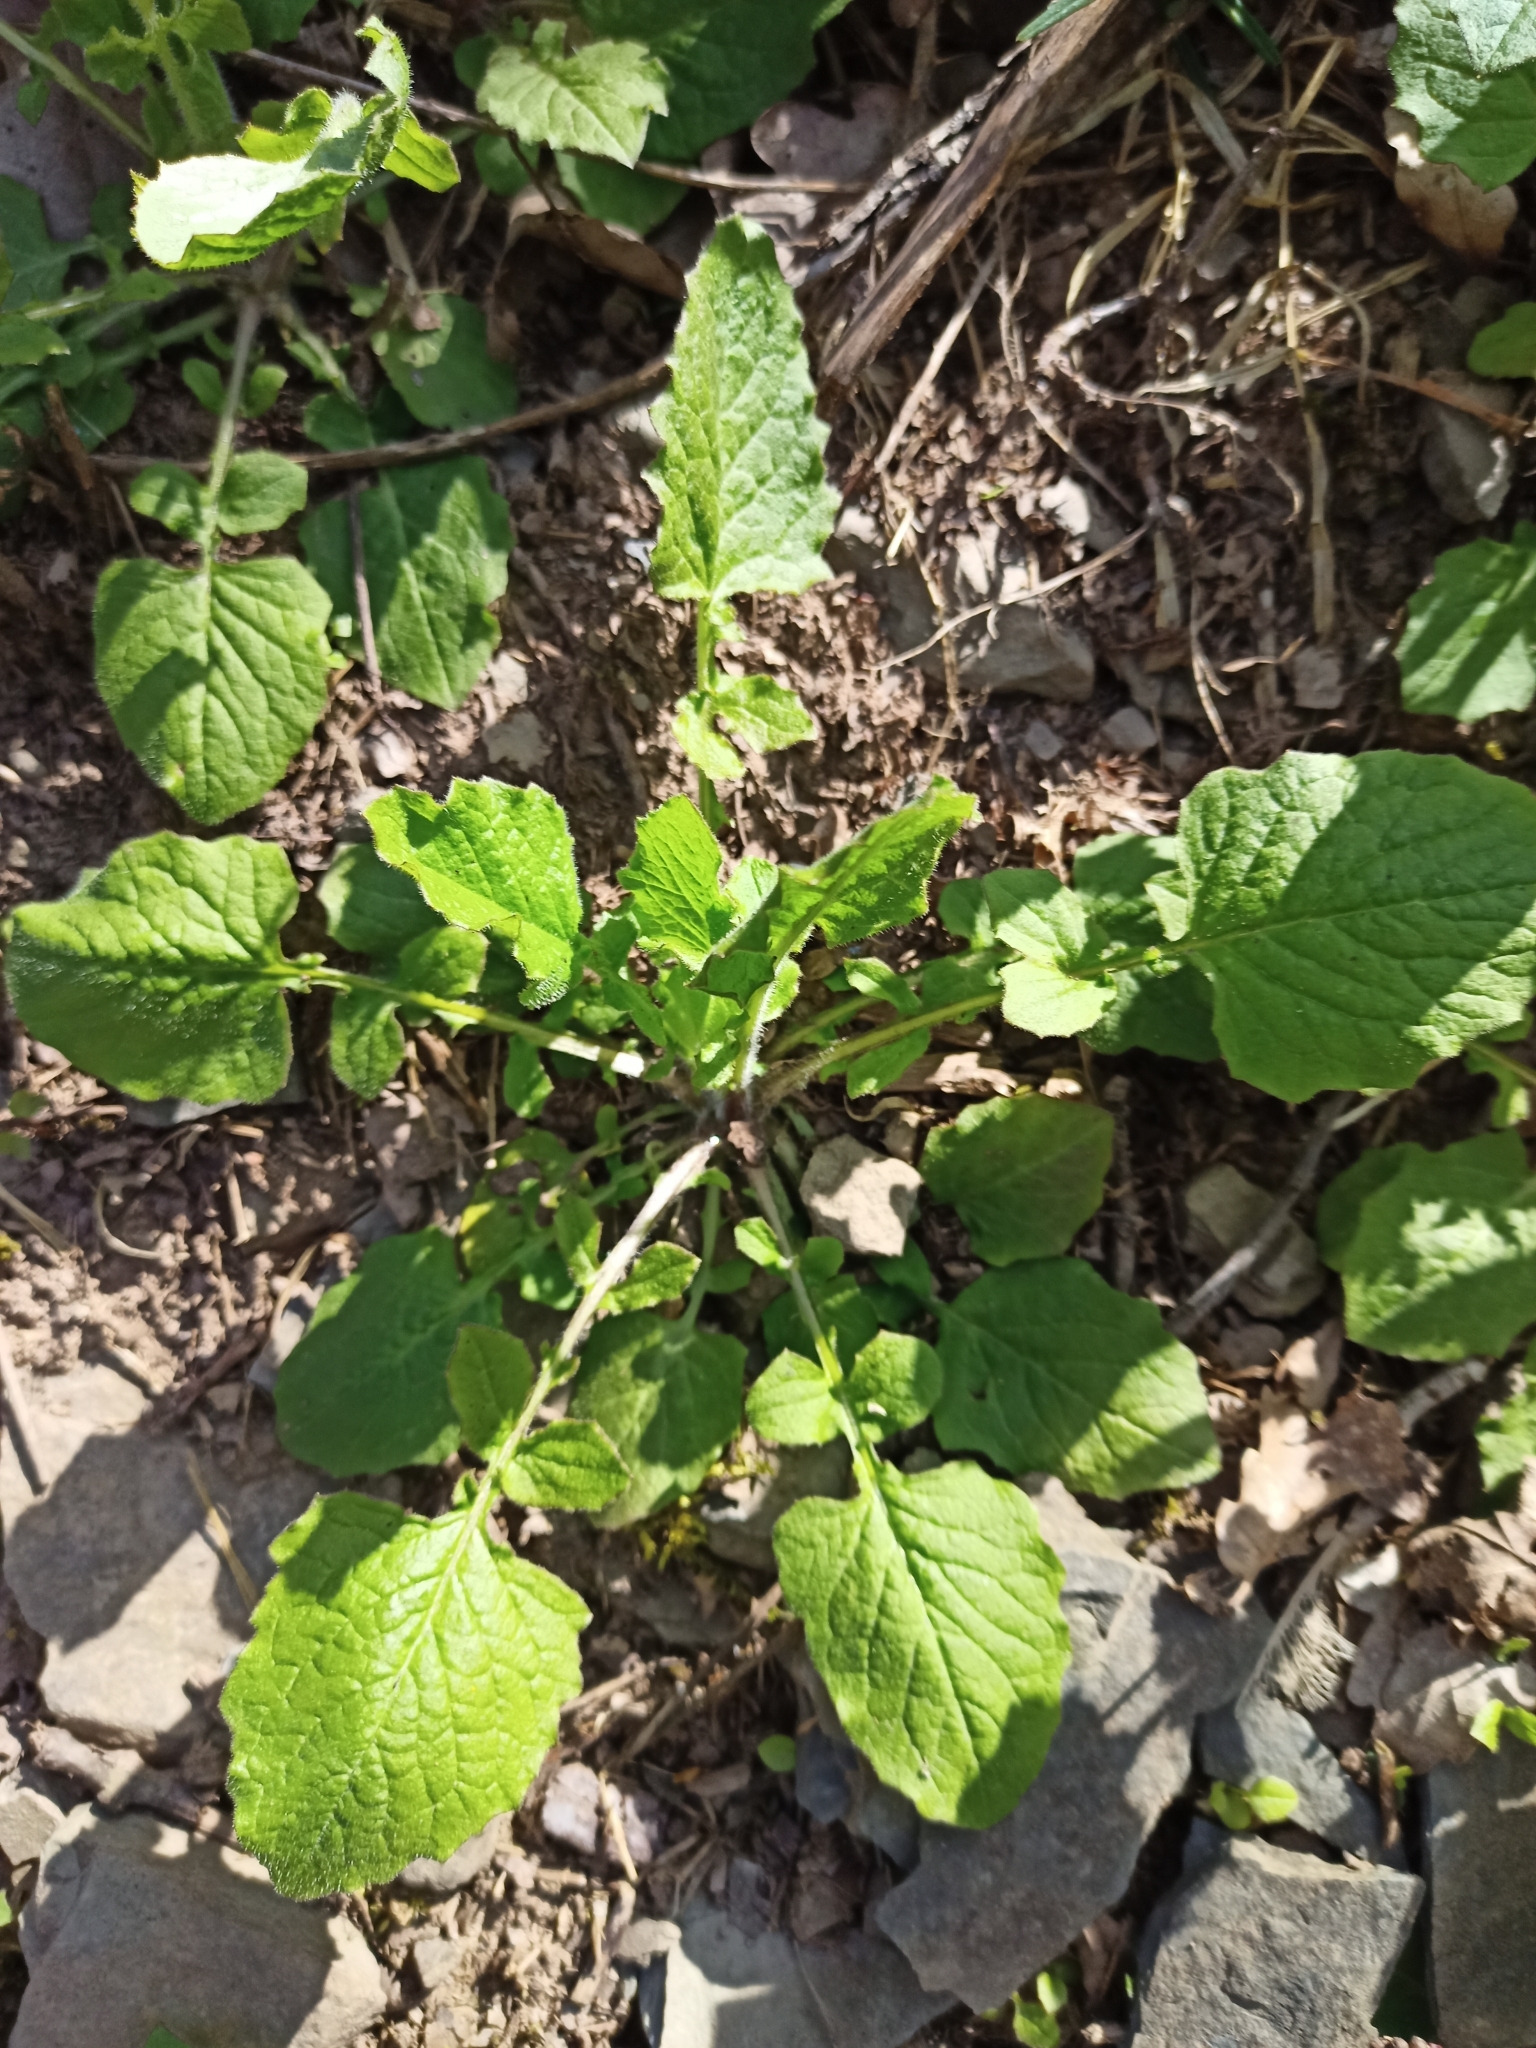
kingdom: Plantae
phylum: Tracheophyta
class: Magnoliopsida
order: Asterales
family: Asteraceae
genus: Lapsana
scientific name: Lapsana communis
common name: Nipplewort
